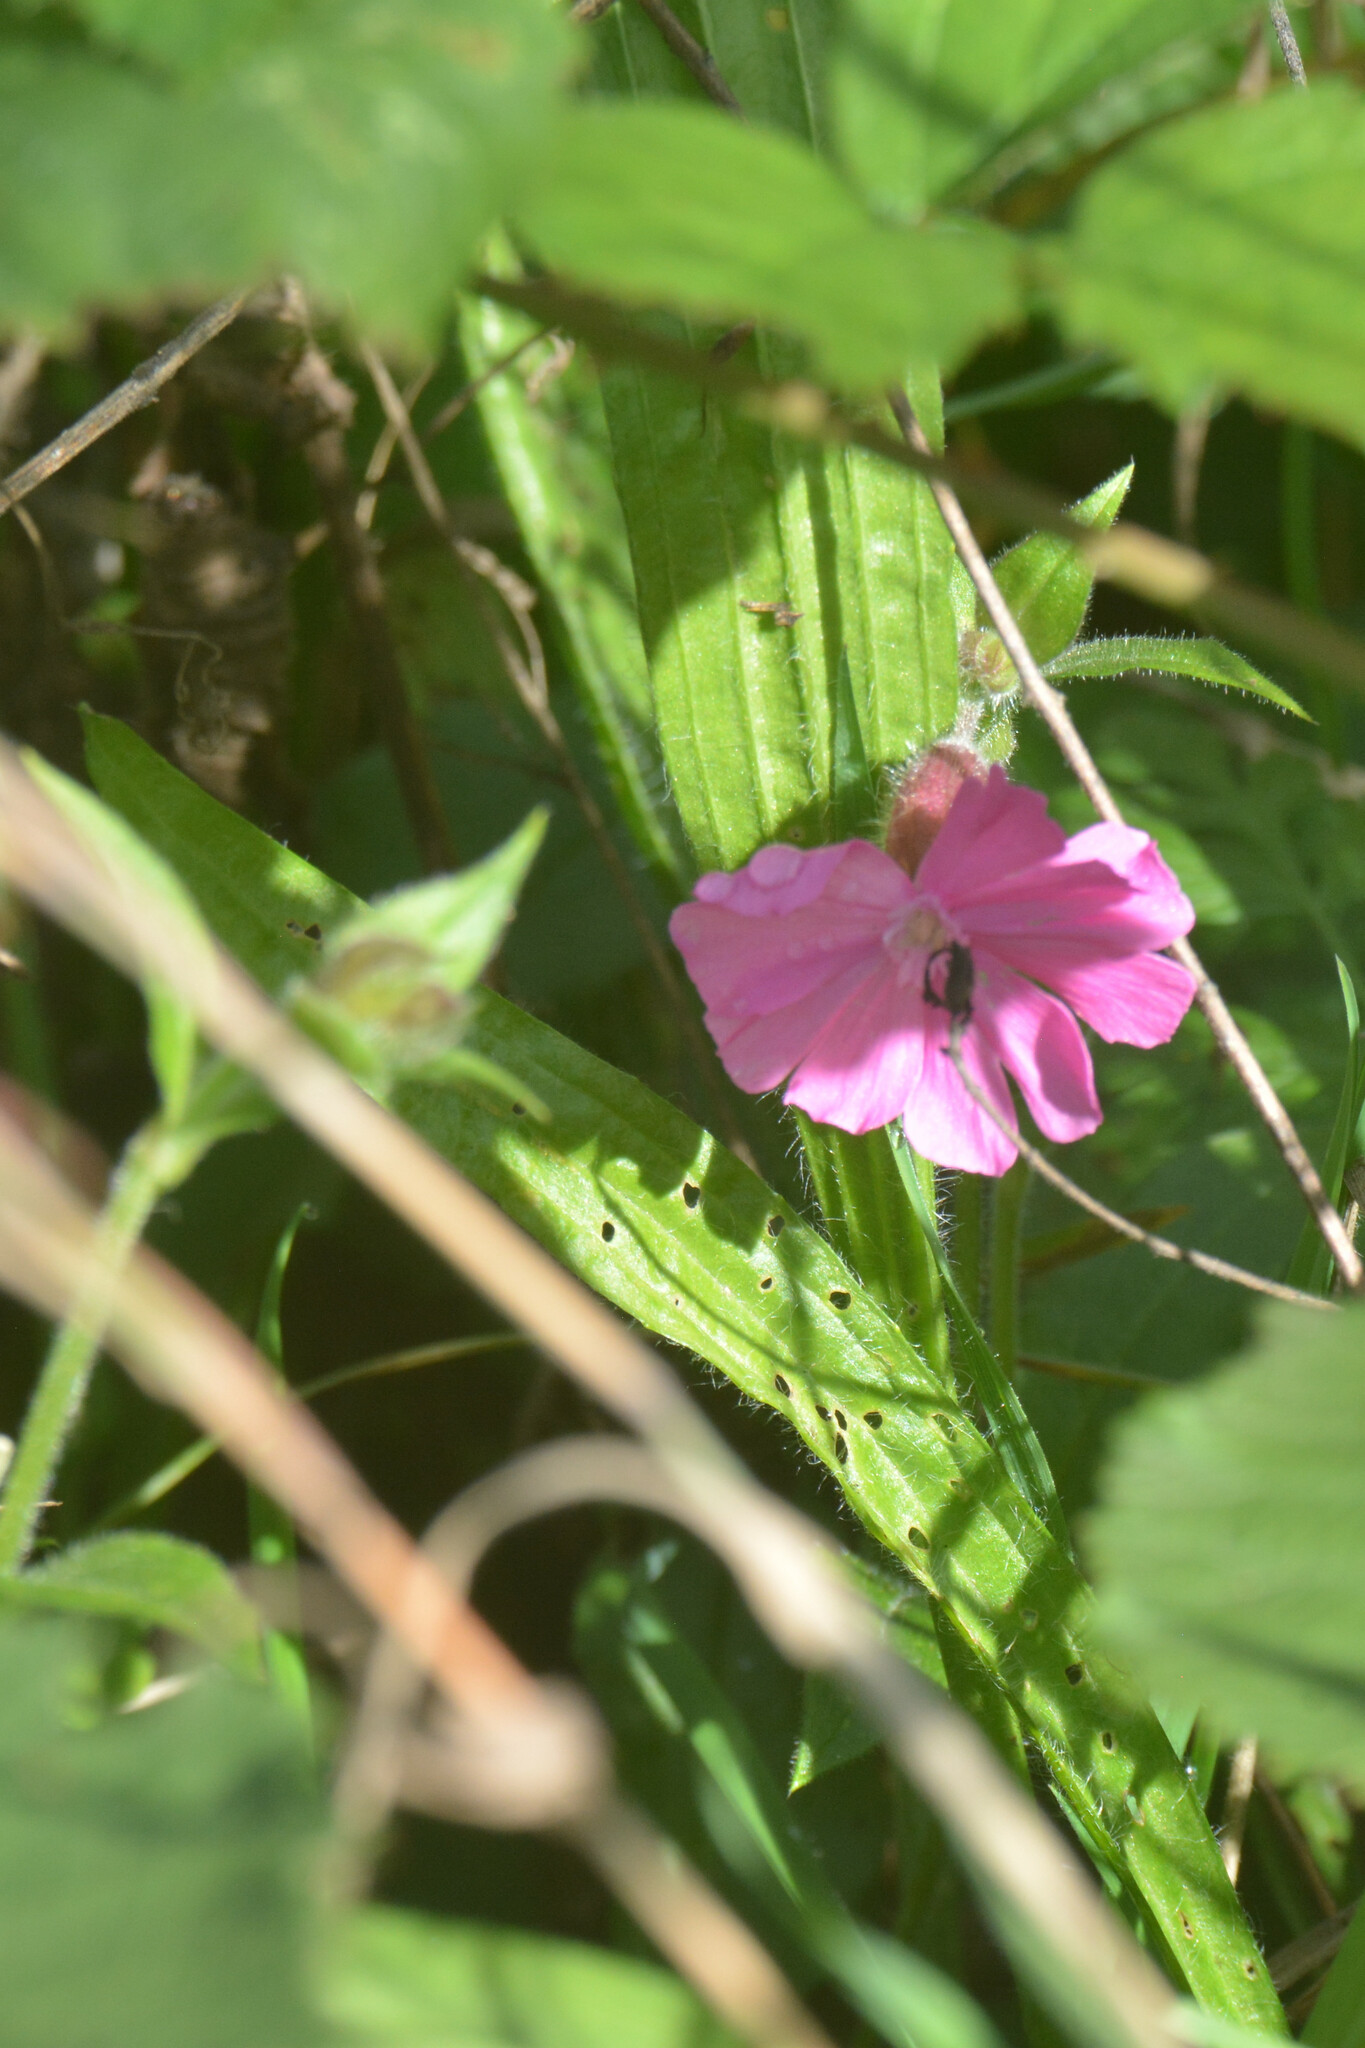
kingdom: Plantae
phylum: Tracheophyta
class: Magnoliopsida
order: Caryophyllales
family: Caryophyllaceae
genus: Silene
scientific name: Silene dioica
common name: Red campion
